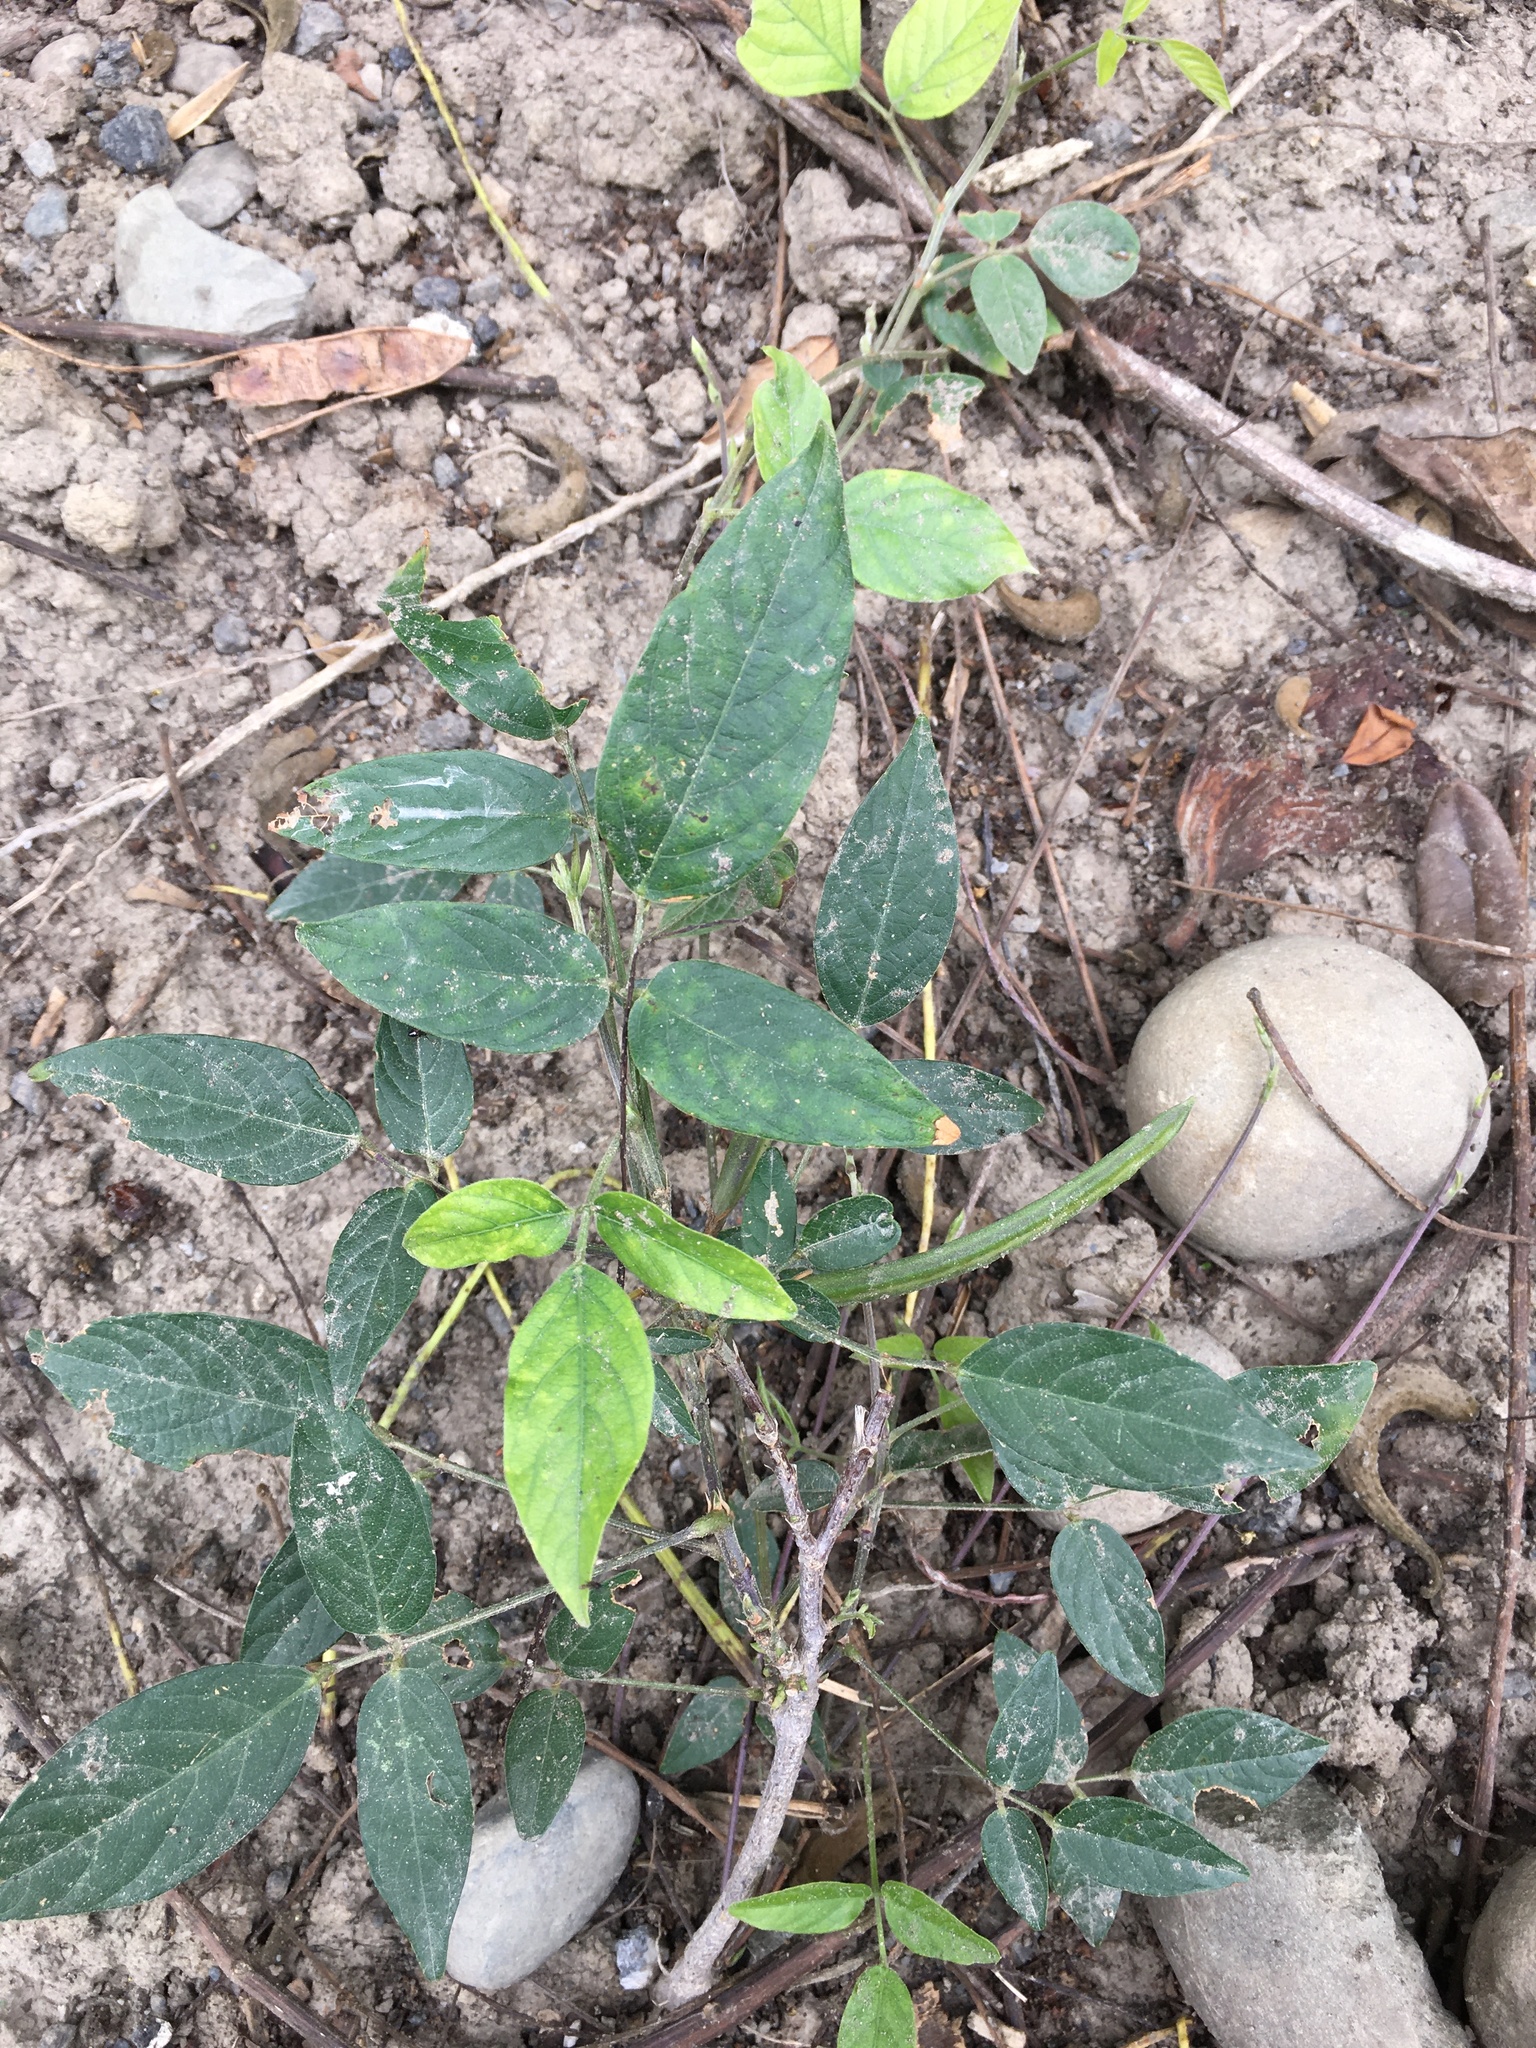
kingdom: Plantae
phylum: Tracheophyta
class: Magnoliopsida
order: Fabales
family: Fabaceae
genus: Centrosema
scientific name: Centrosema pubescens
